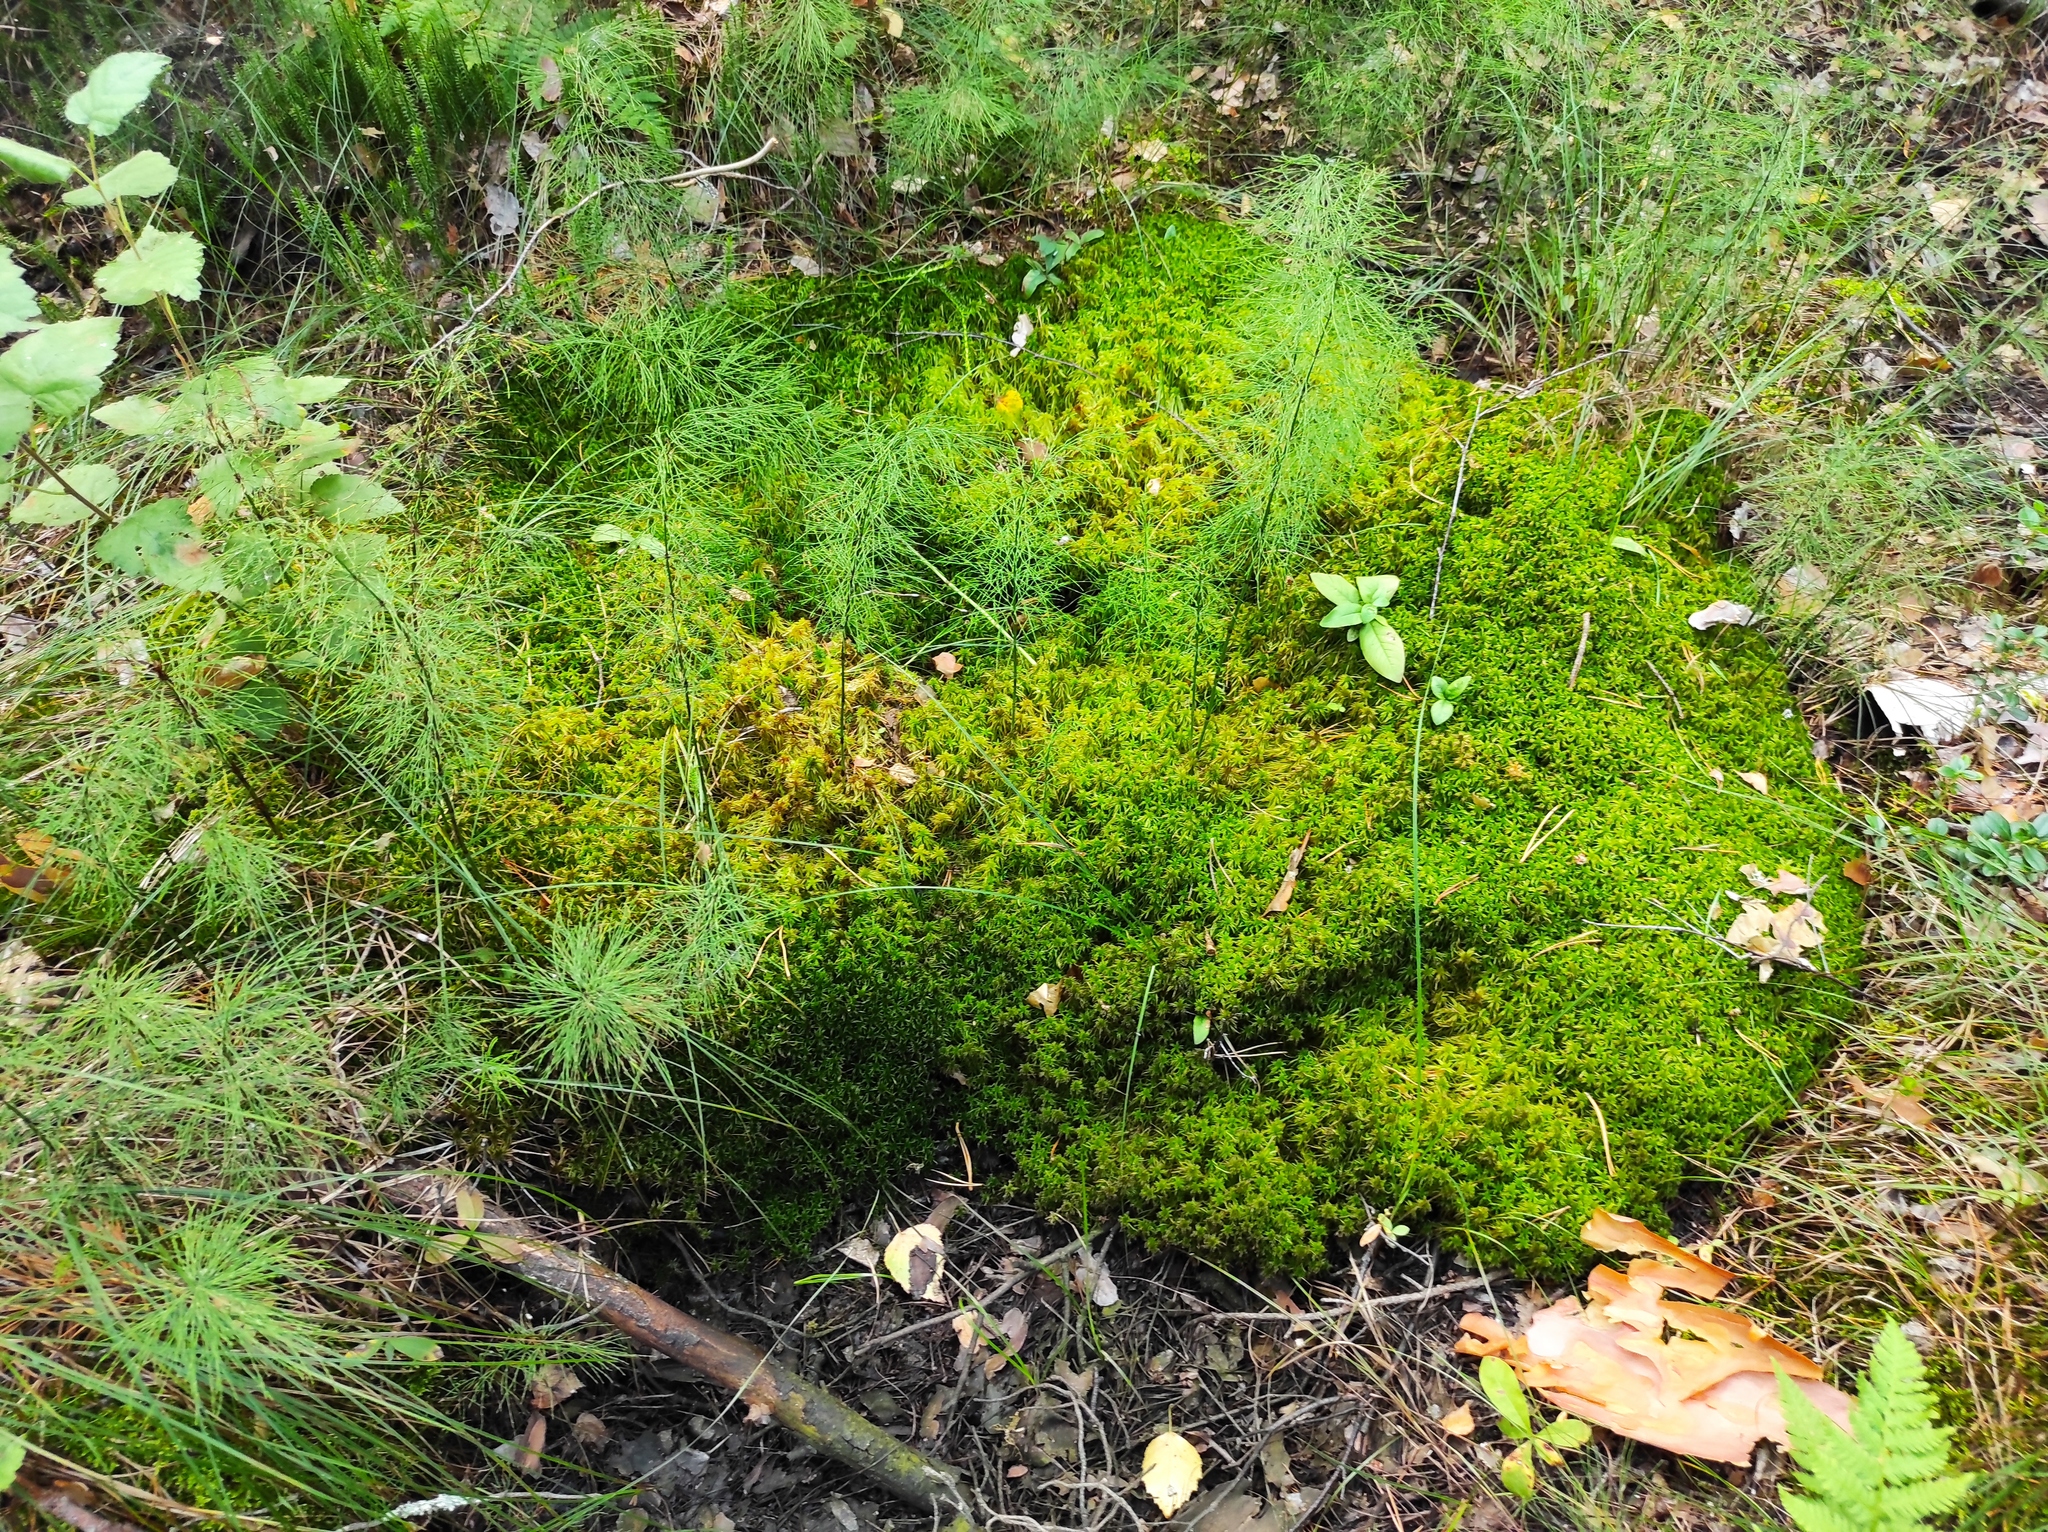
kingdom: Plantae
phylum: Tracheophyta
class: Polypodiopsida
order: Equisetales
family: Equisetaceae
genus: Equisetum
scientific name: Equisetum sylvaticum
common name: Wood horsetail
